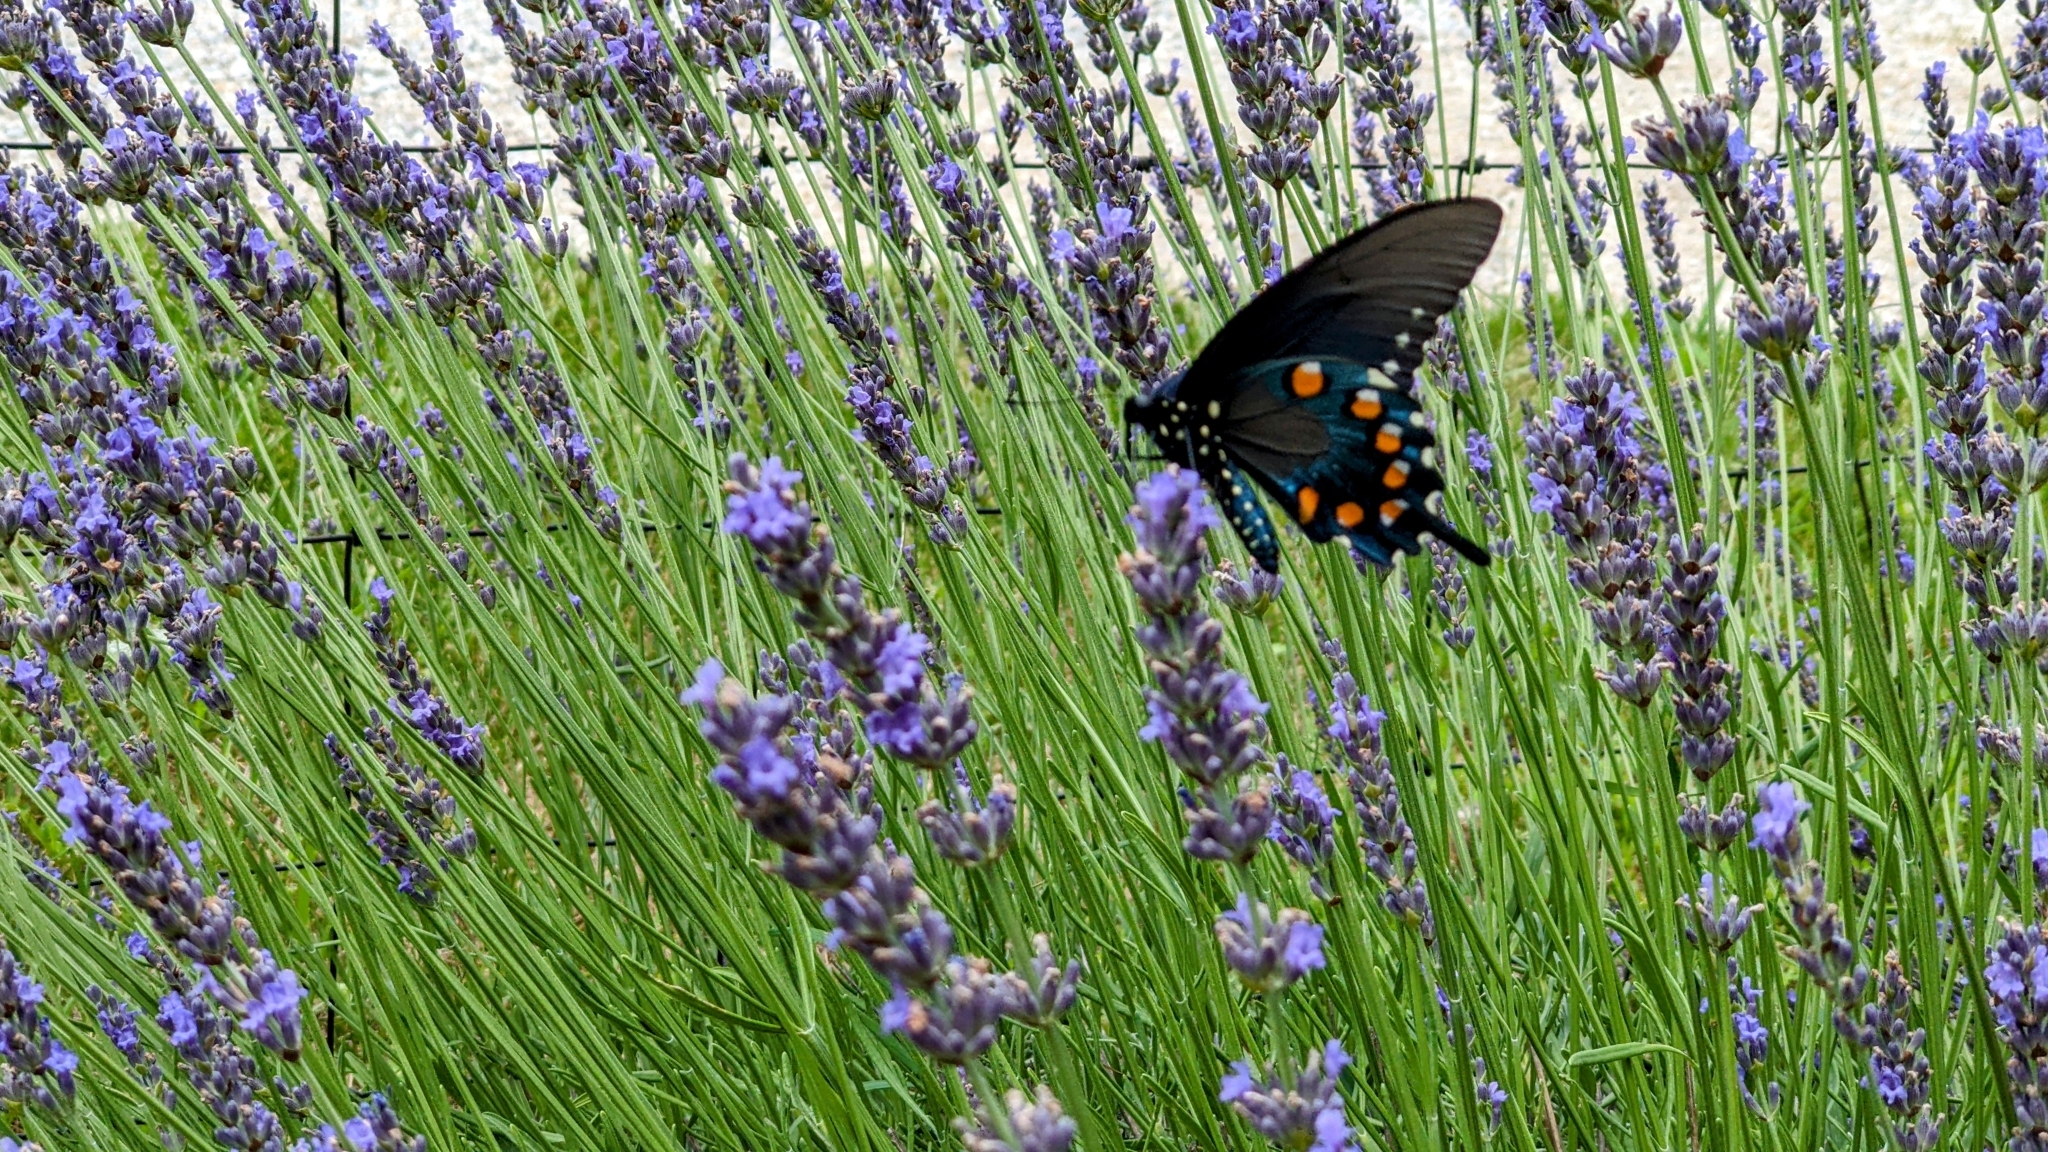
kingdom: Animalia
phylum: Arthropoda
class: Insecta
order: Lepidoptera
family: Papilionidae
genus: Battus
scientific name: Battus philenor
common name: Pipevine swallowtail
